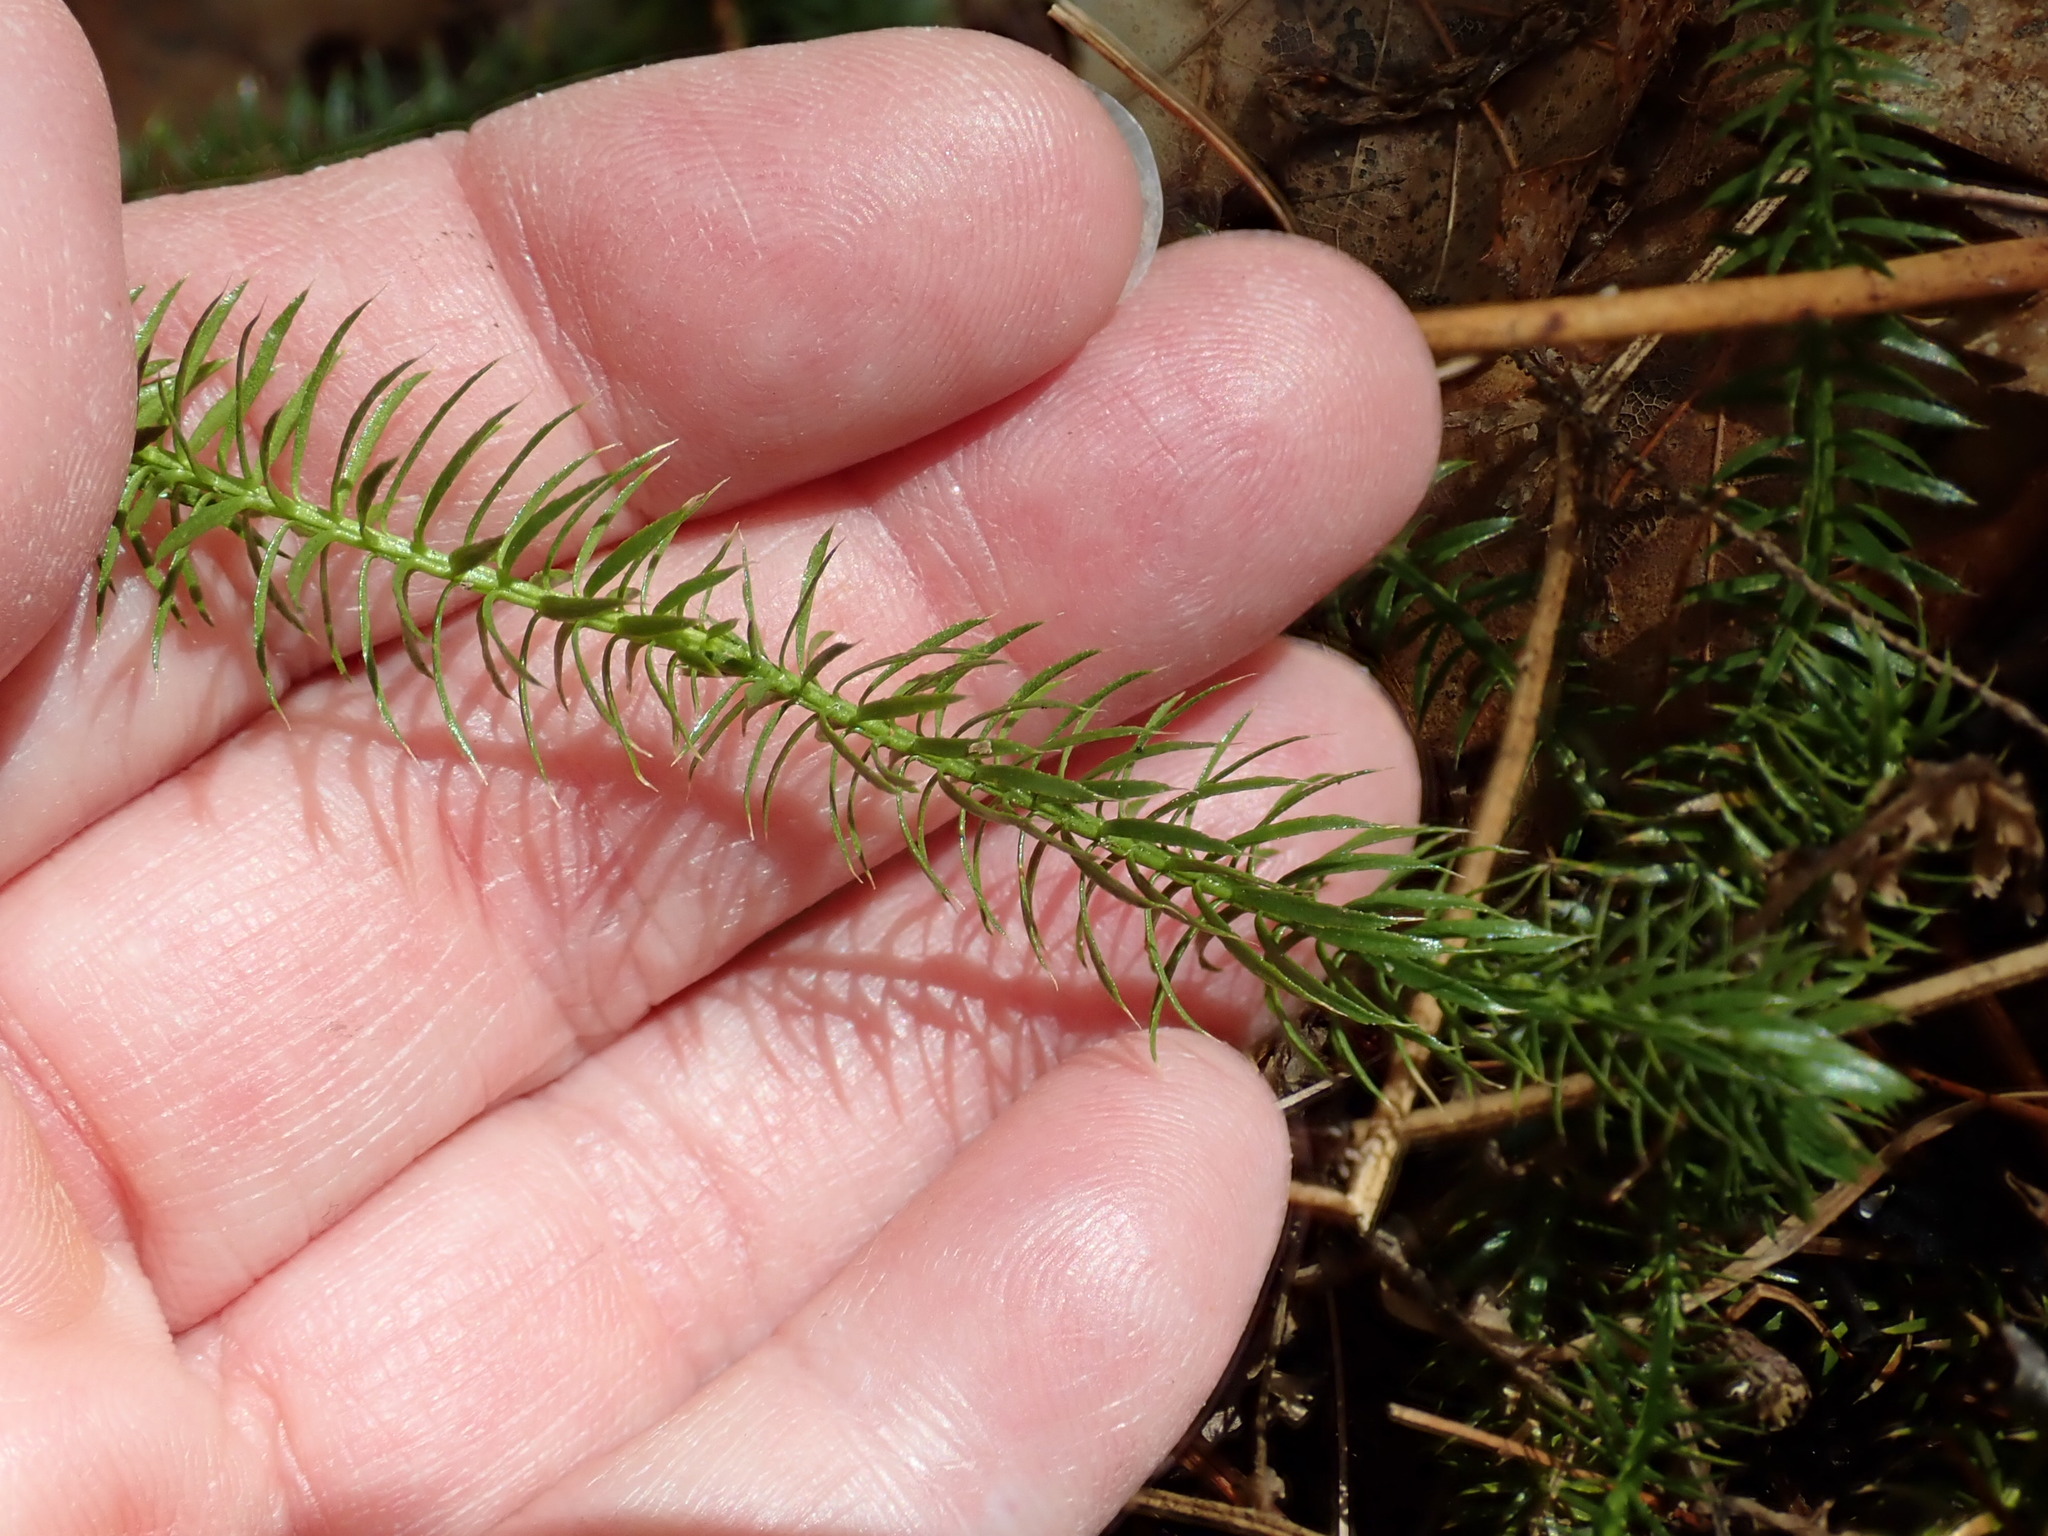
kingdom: Plantae
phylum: Tracheophyta
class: Lycopodiopsida
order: Lycopodiales
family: Lycopodiaceae
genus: Spinulum
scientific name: Spinulum annotinum
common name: Interrupted club-moss
